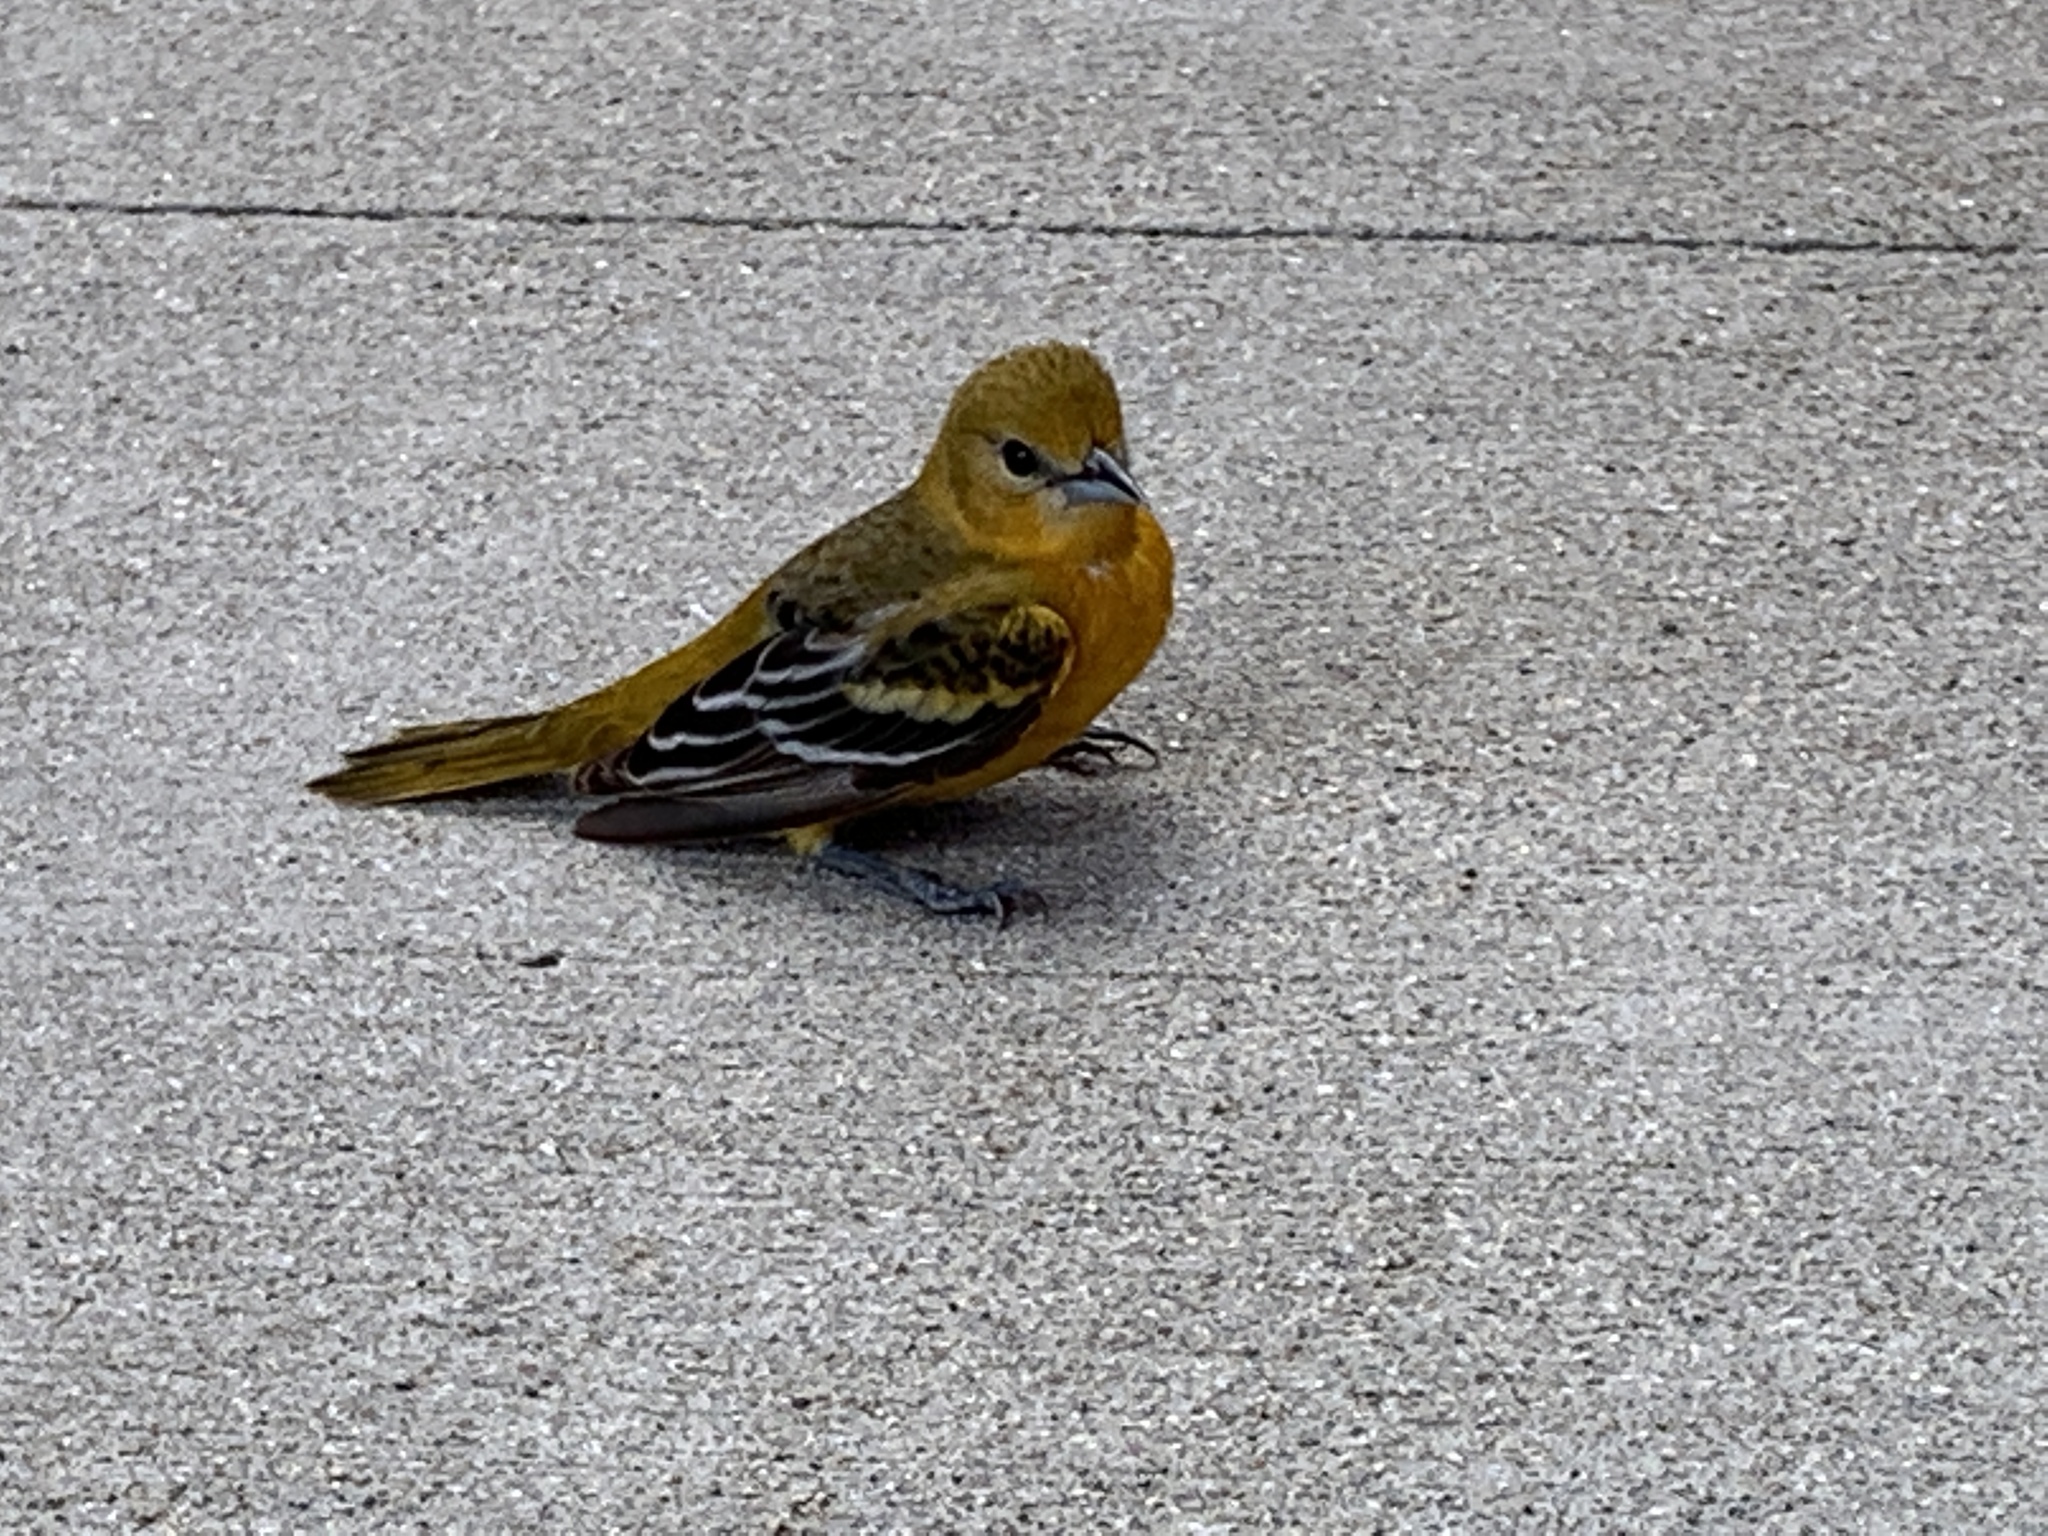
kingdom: Animalia
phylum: Chordata
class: Aves
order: Passeriformes
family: Icteridae
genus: Icterus
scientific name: Icterus galbula
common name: Baltimore oriole
